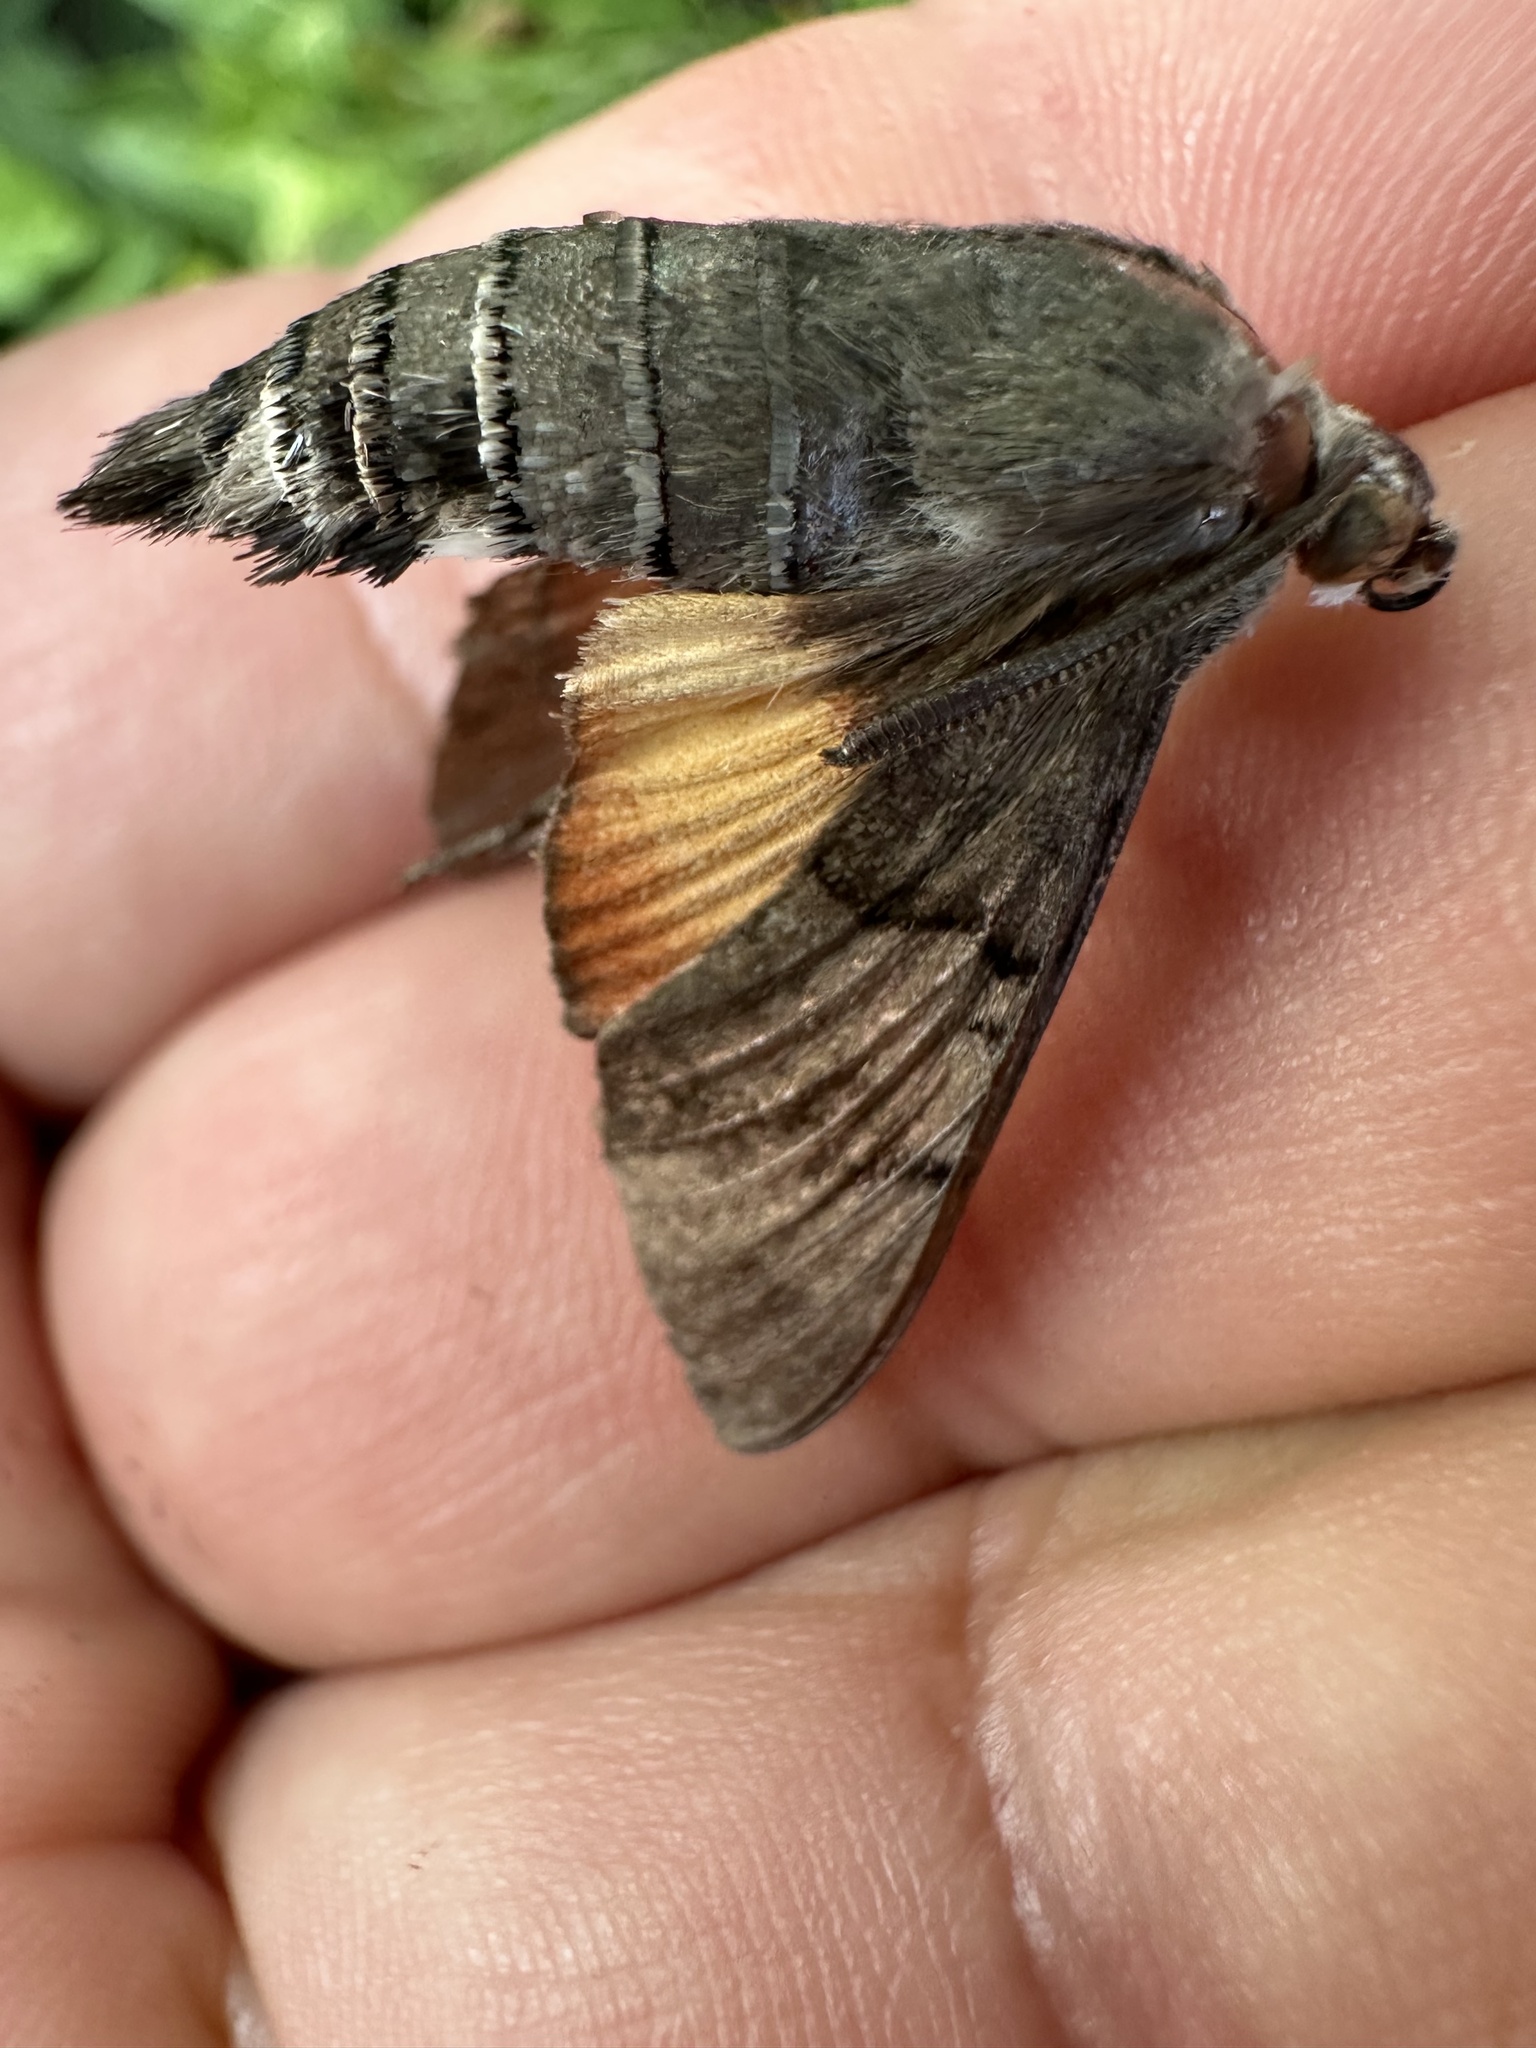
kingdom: Animalia
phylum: Arthropoda
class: Insecta
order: Lepidoptera
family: Sphingidae
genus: Macroglossum
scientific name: Macroglossum stellatarum
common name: Humming-bird hawk-moth
